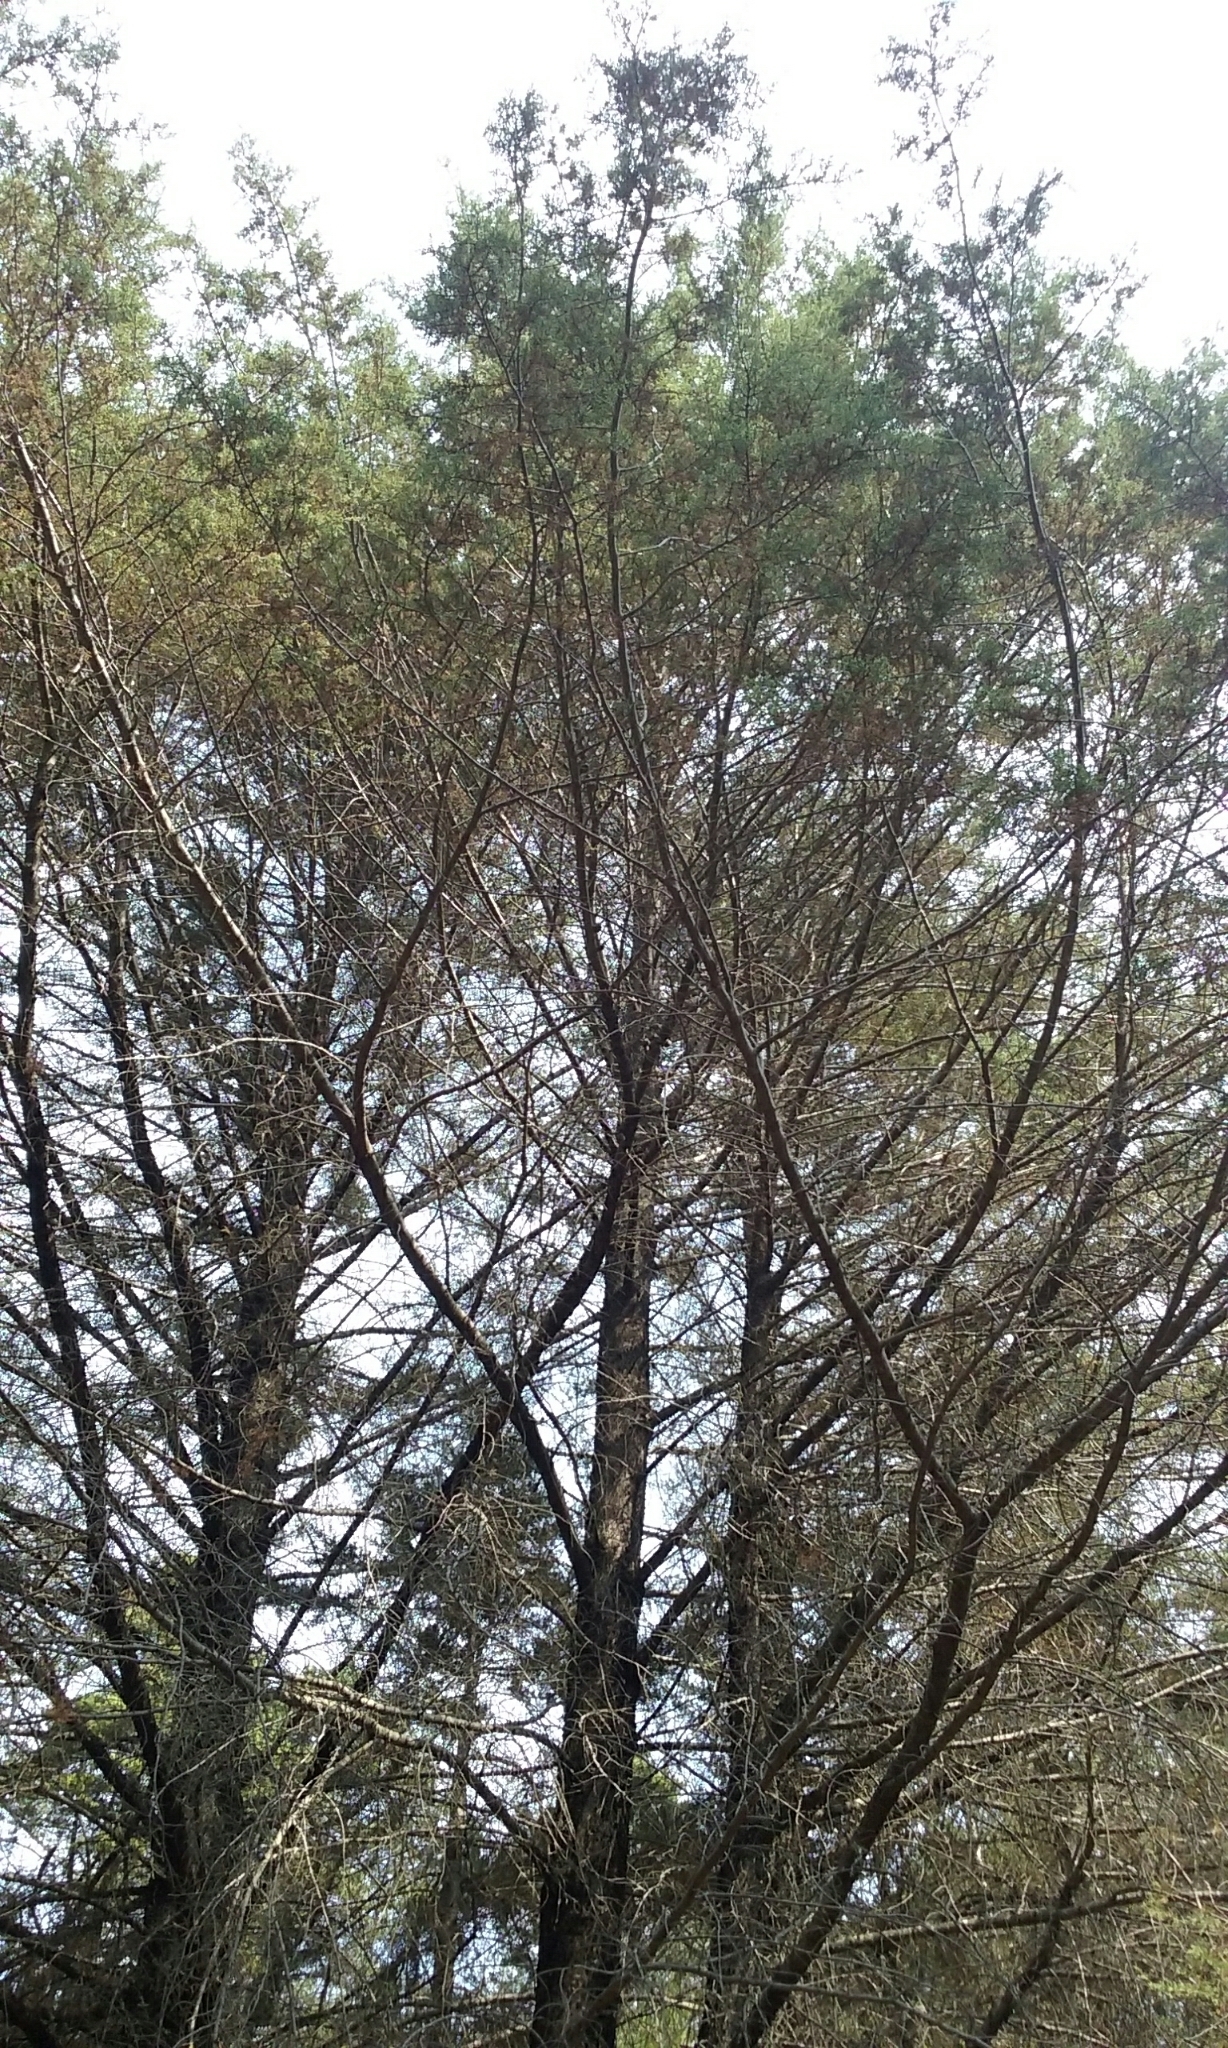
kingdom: Plantae
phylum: Tracheophyta
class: Pinopsida
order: Pinales
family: Cupressaceae
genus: Cupressus
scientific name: Cupressus sargentii
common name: Sargent cypress
